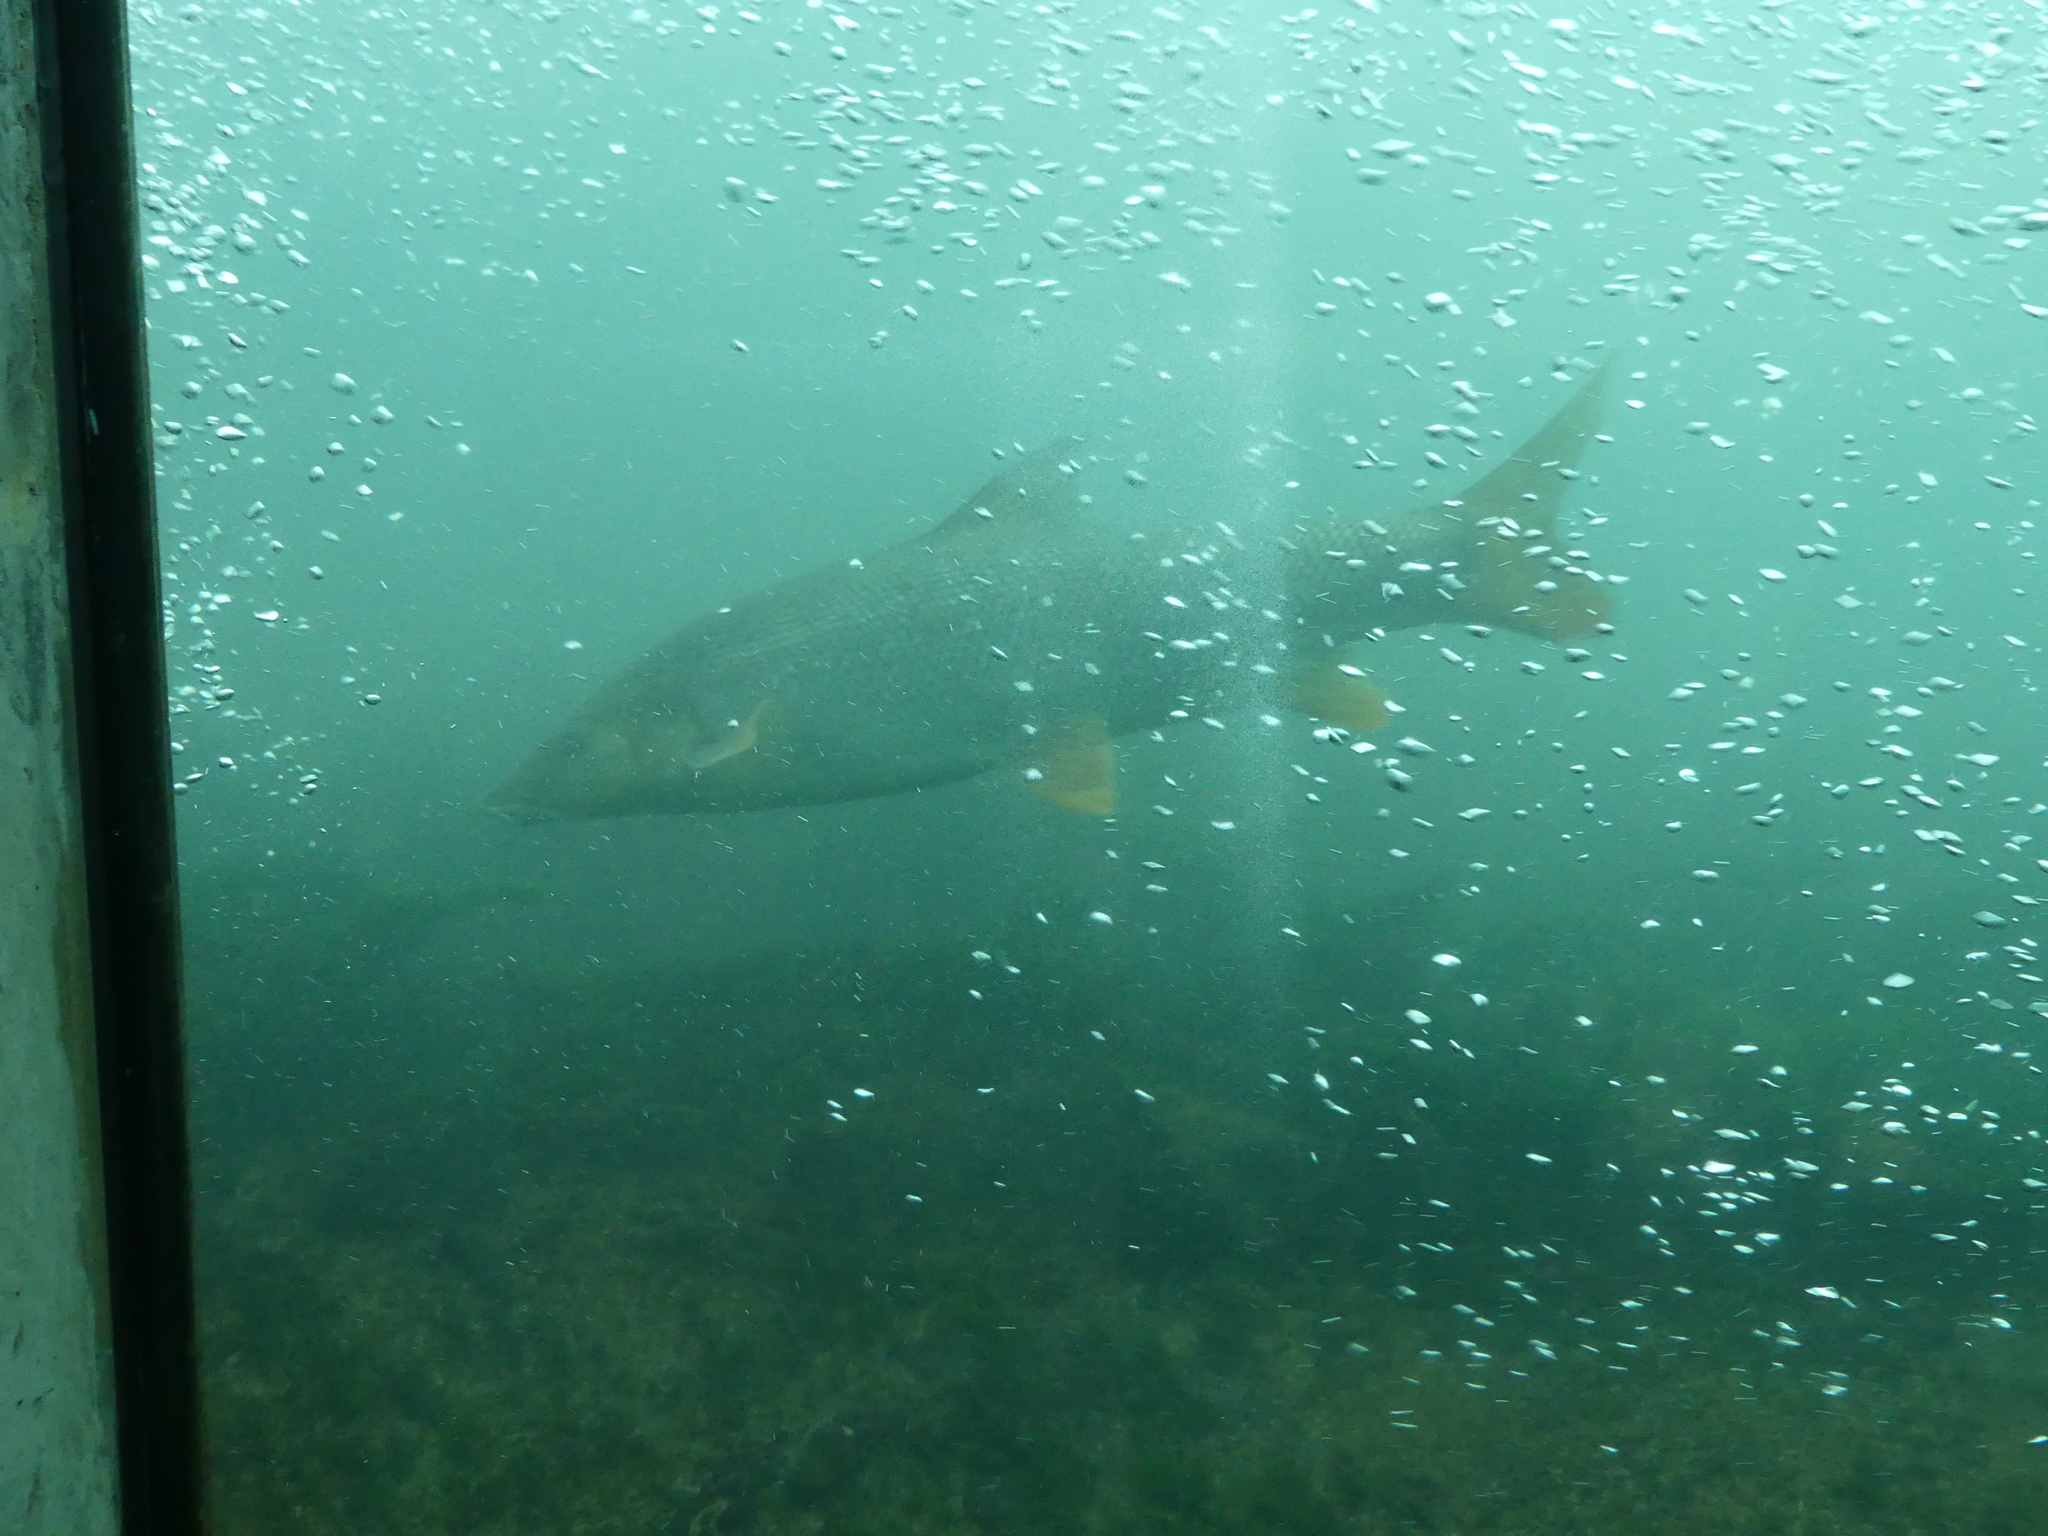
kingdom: Animalia
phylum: Chordata
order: Cypriniformes
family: Cyprinidae
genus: Barbus
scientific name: Barbus barbus
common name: Barbel
